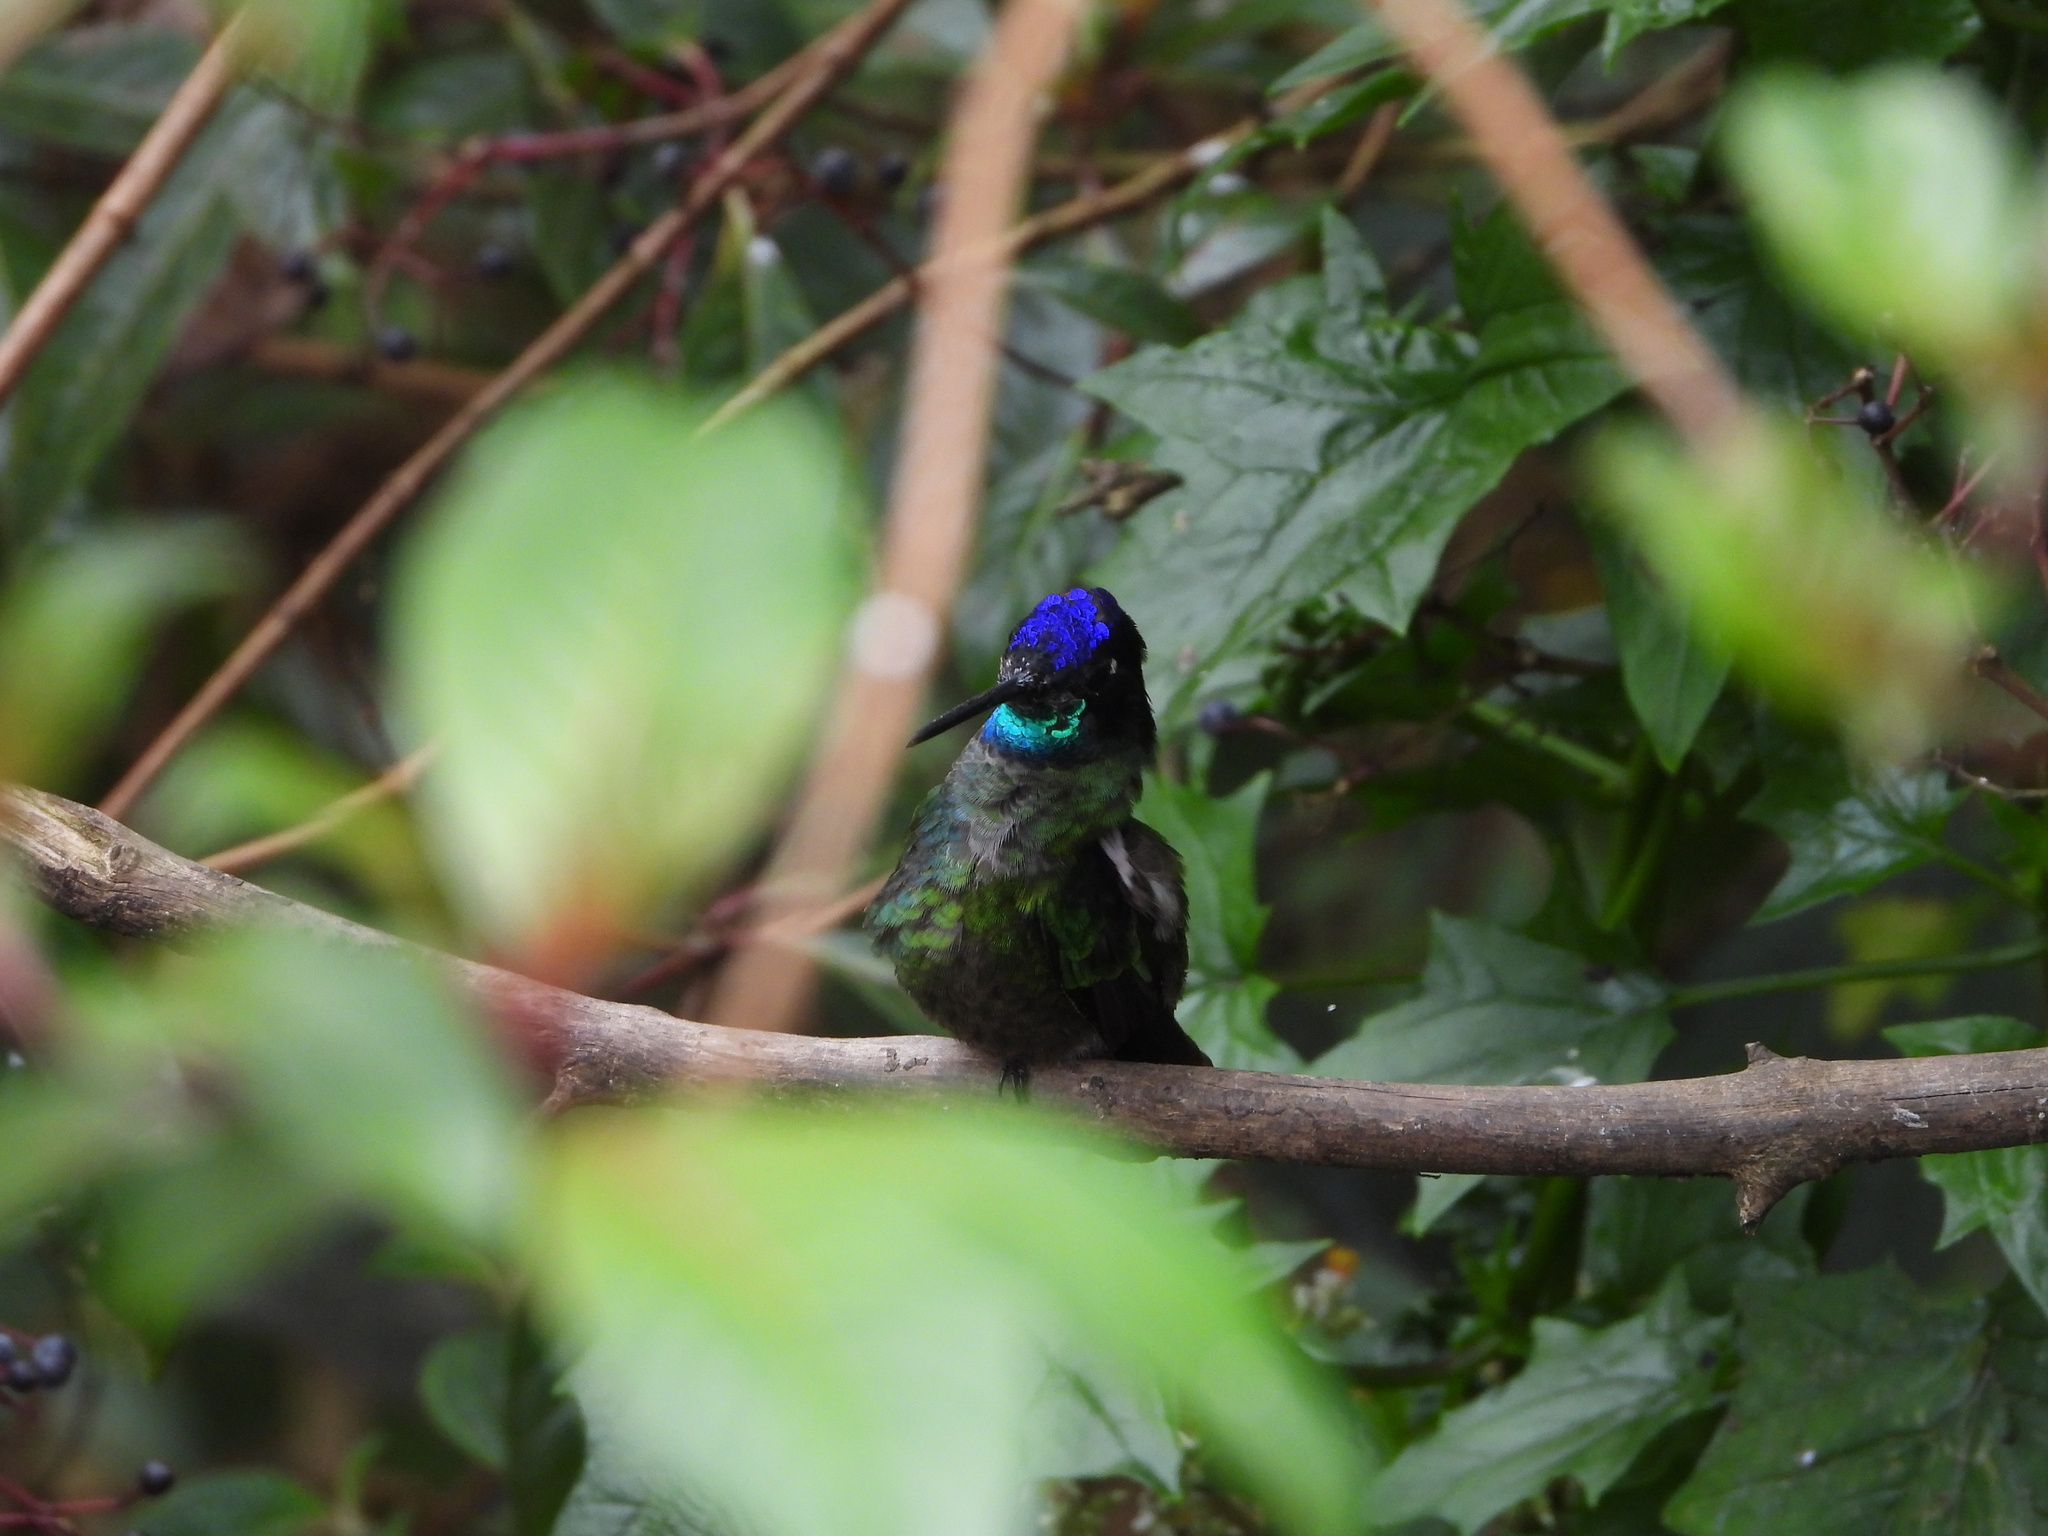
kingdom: Animalia
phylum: Chordata
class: Aves
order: Apodiformes
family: Trochilidae
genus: Eugenes
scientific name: Eugenes spectabilis
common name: Talamanca hummingbird
